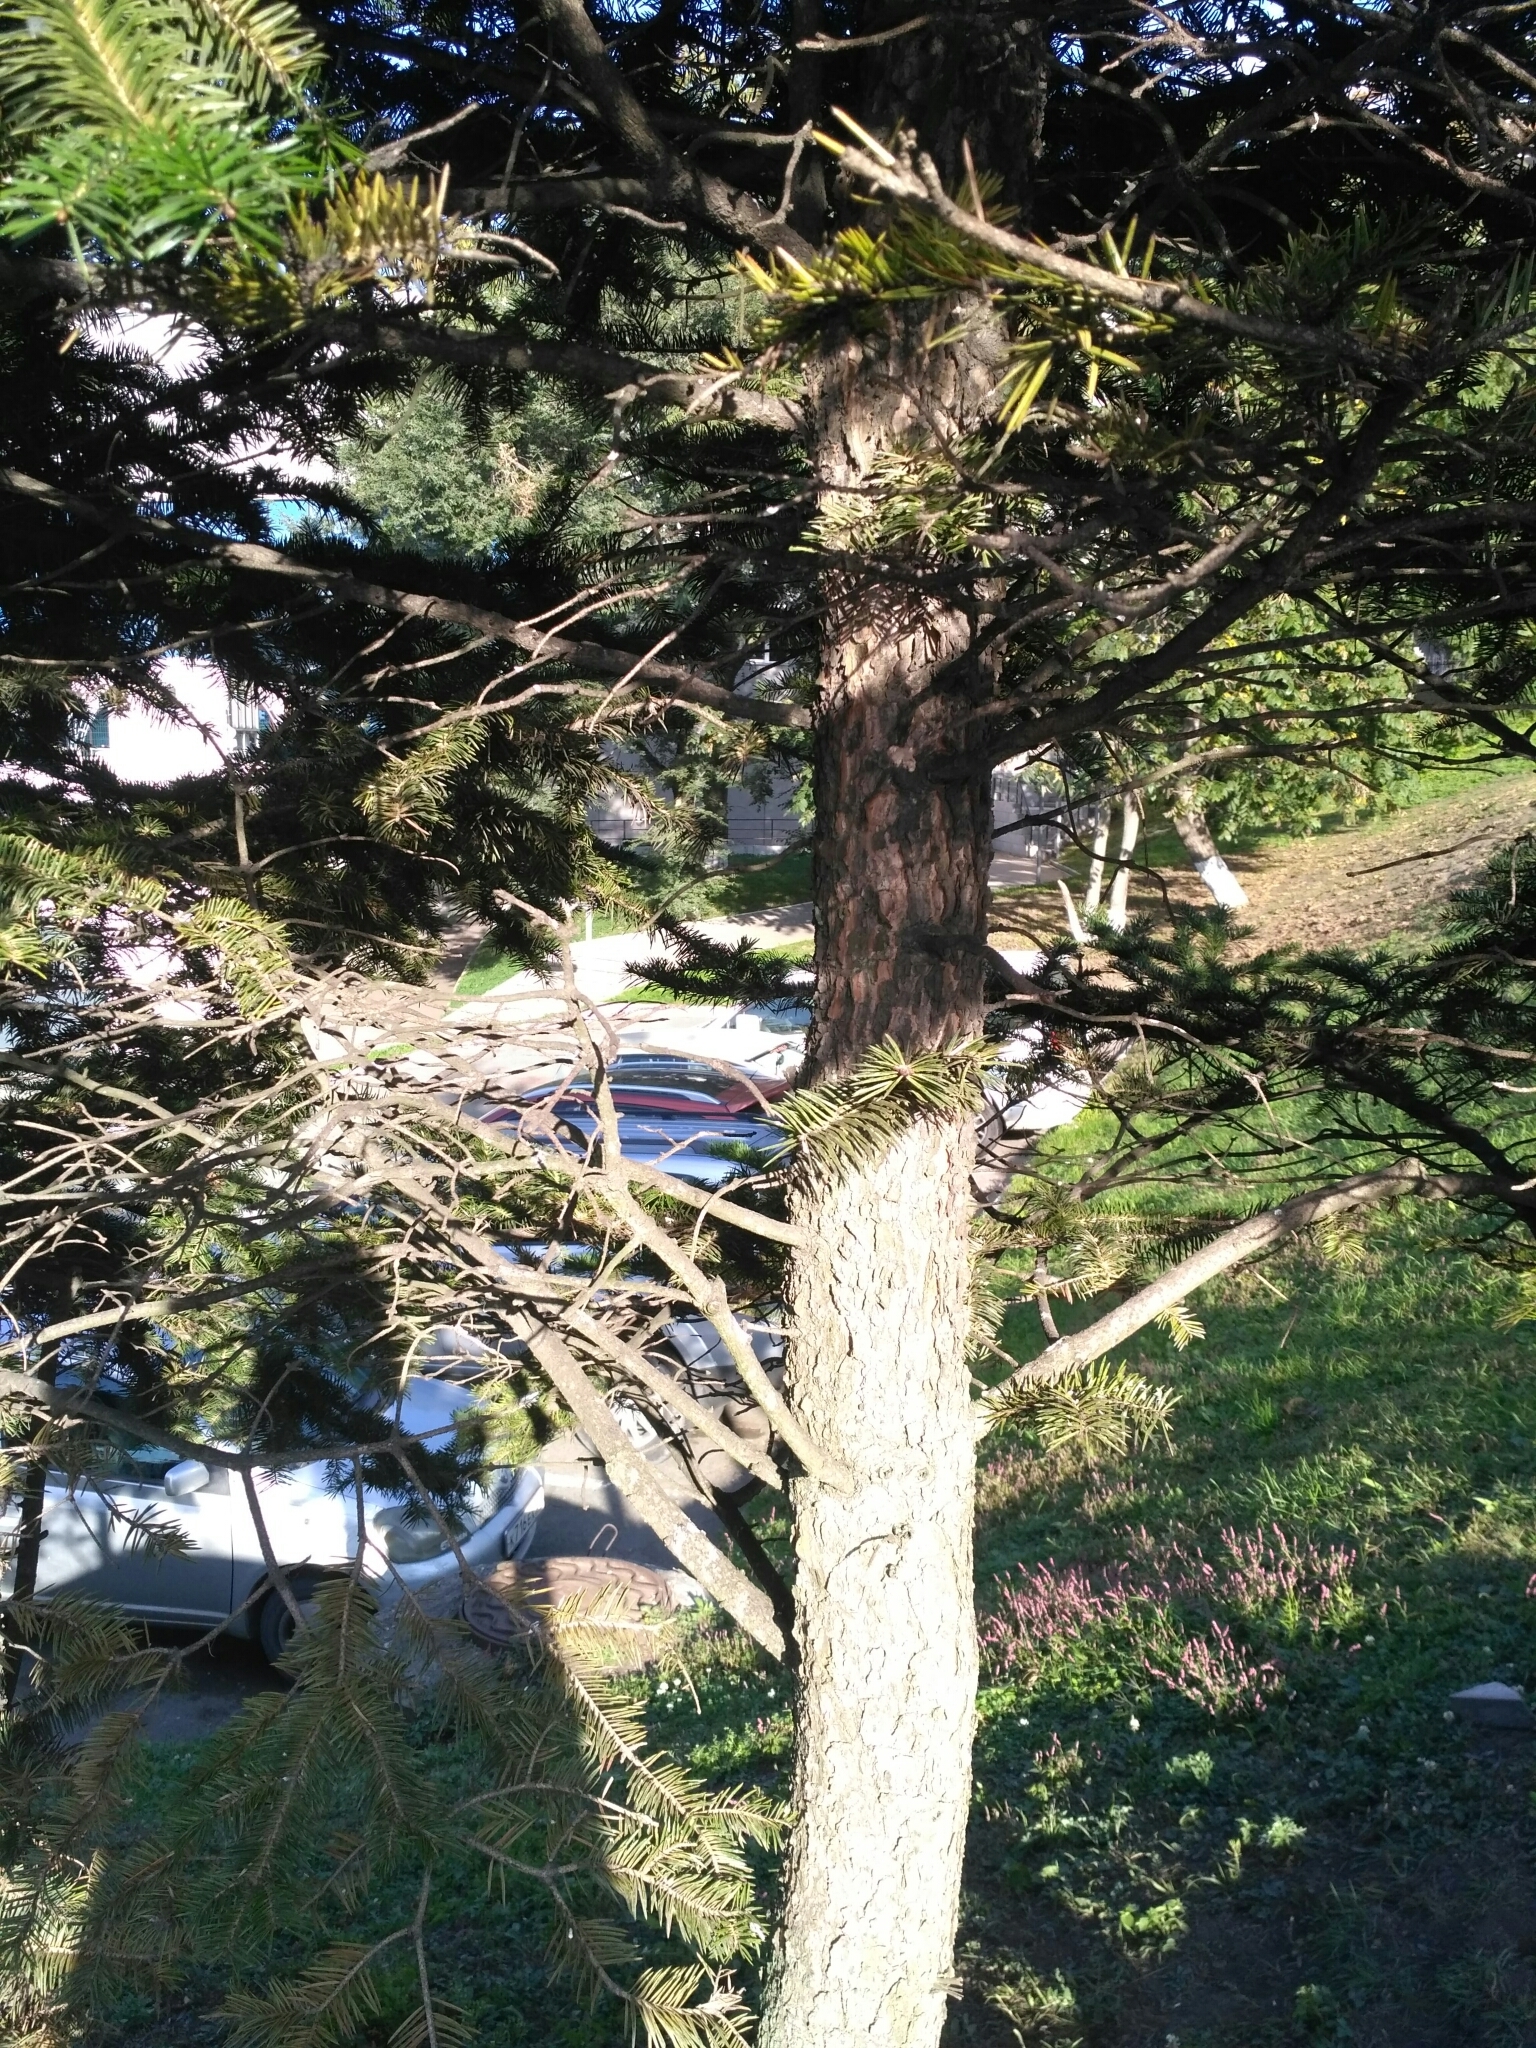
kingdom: Plantae
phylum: Tracheophyta
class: Pinopsida
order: Pinales
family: Pinaceae
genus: Abies
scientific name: Abies holophylla
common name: Manchurian fir
